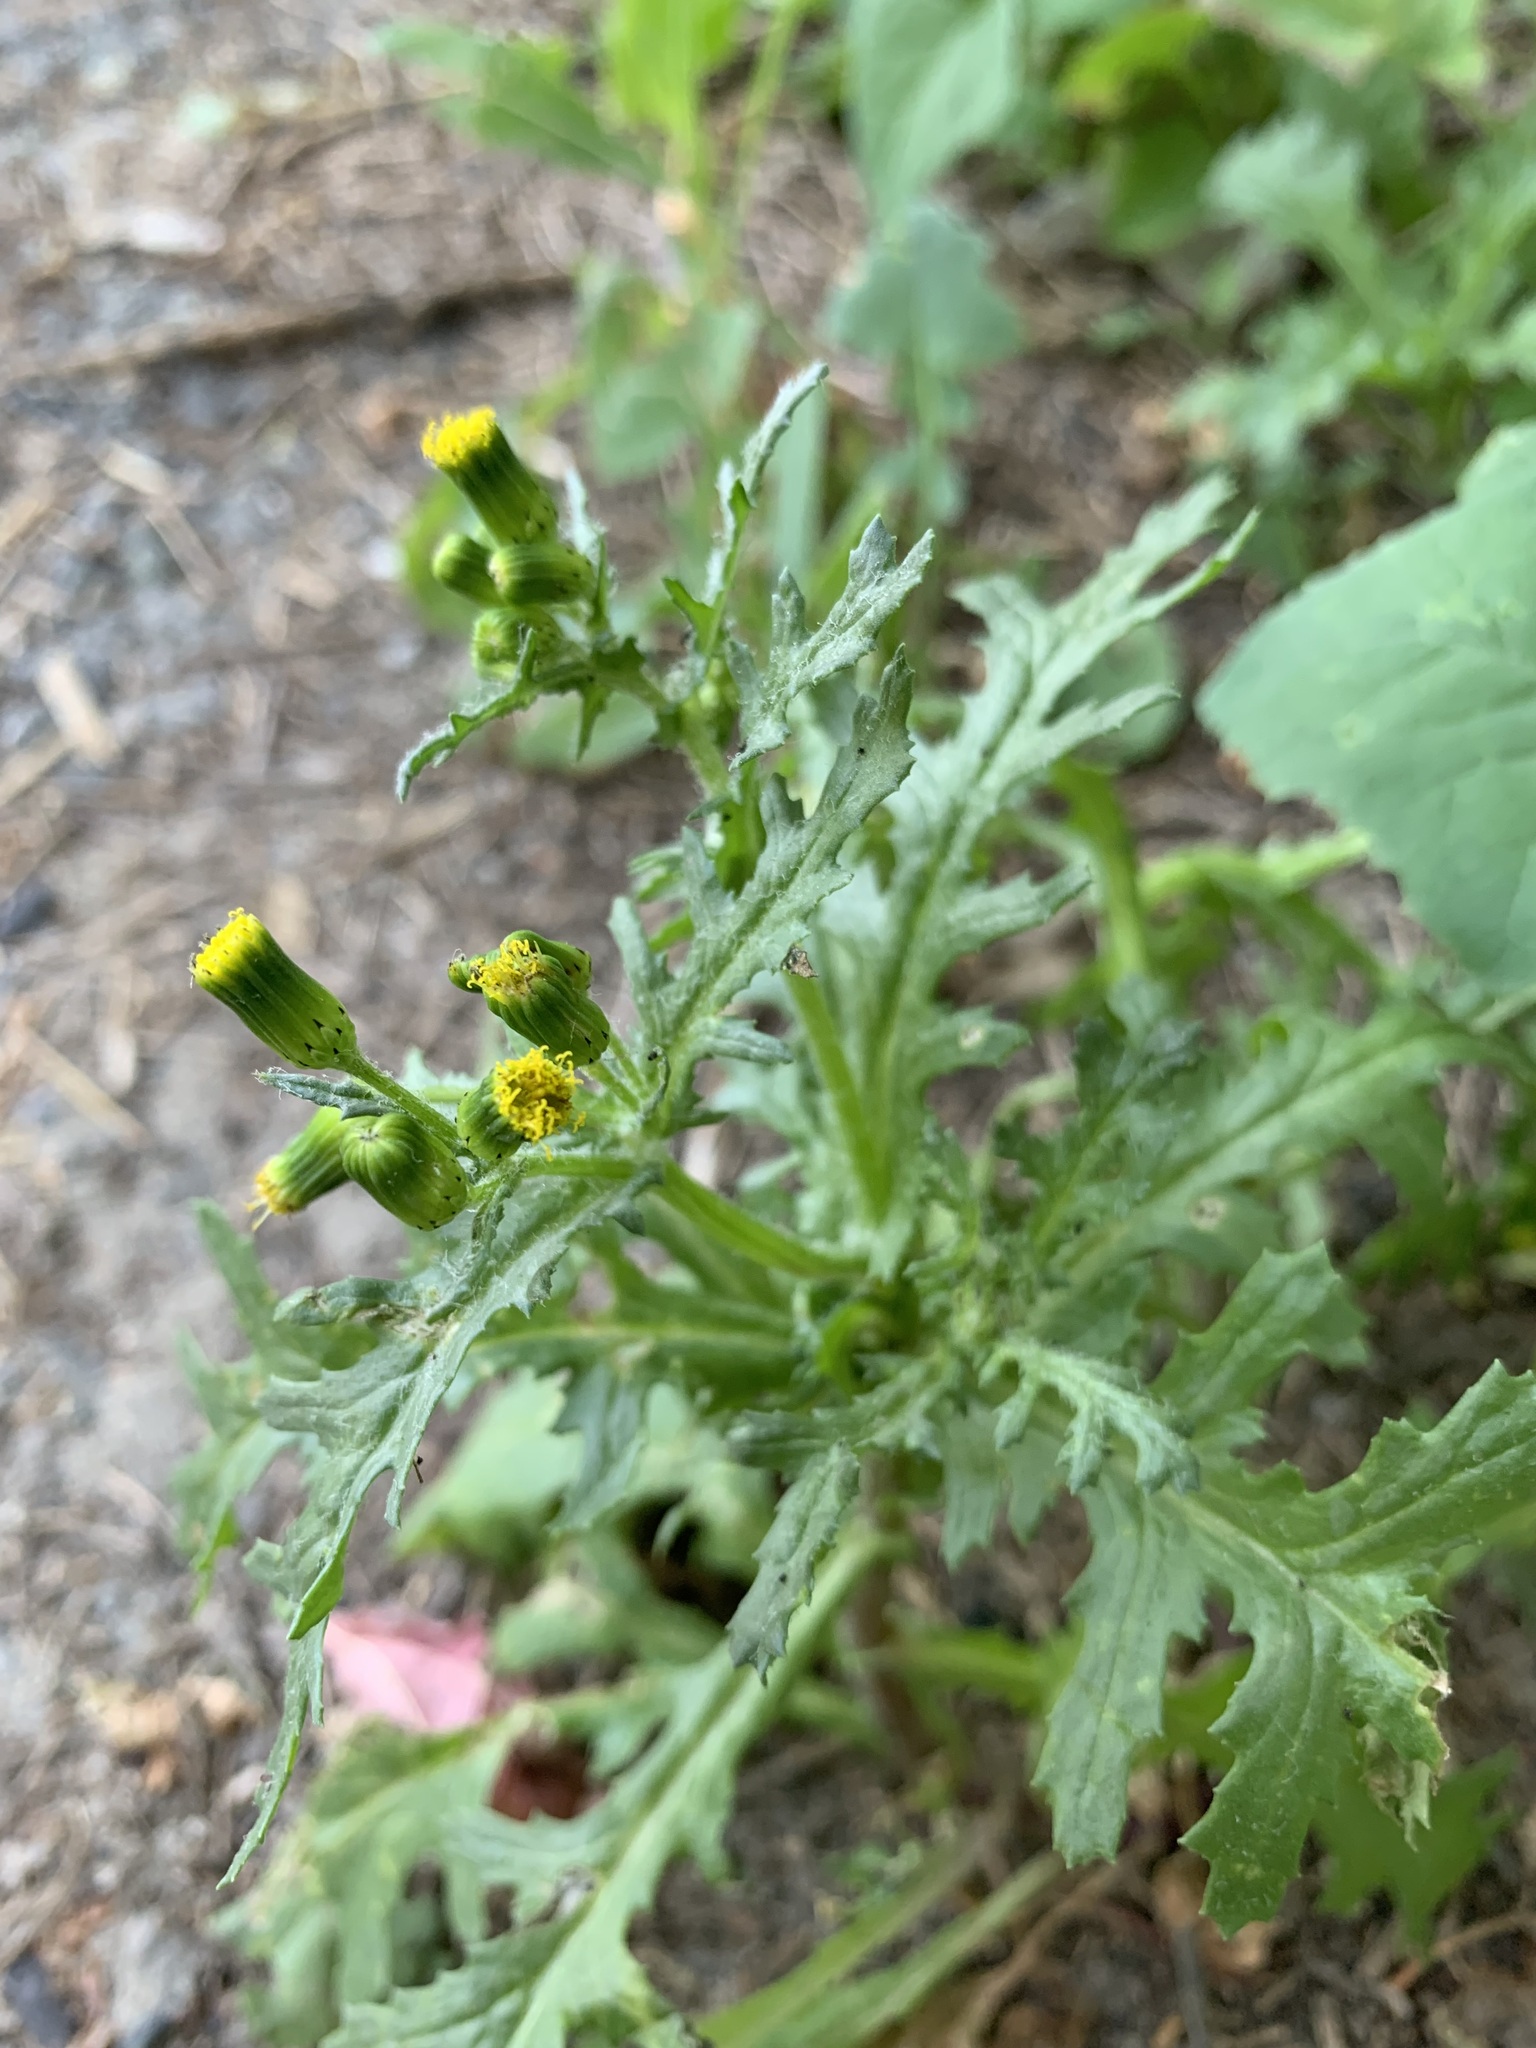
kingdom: Plantae
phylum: Tracheophyta
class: Magnoliopsida
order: Asterales
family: Asteraceae
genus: Senecio
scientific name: Senecio vulgaris
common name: Old-man-in-the-spring
